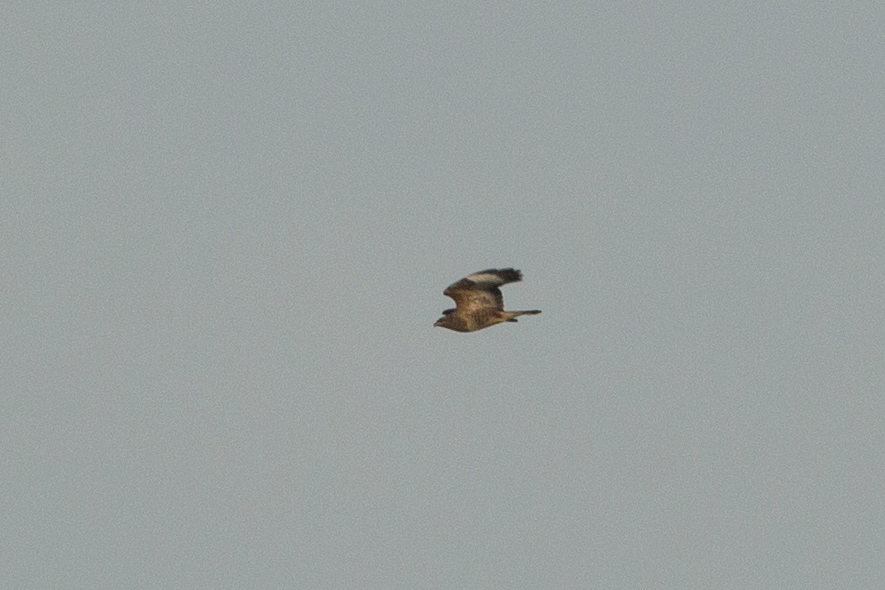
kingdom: Animalia
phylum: Chordata
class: Aves
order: Accipitriformes
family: Accipitridae
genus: Buteo
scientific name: Buteo buteo
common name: Common buzzard
